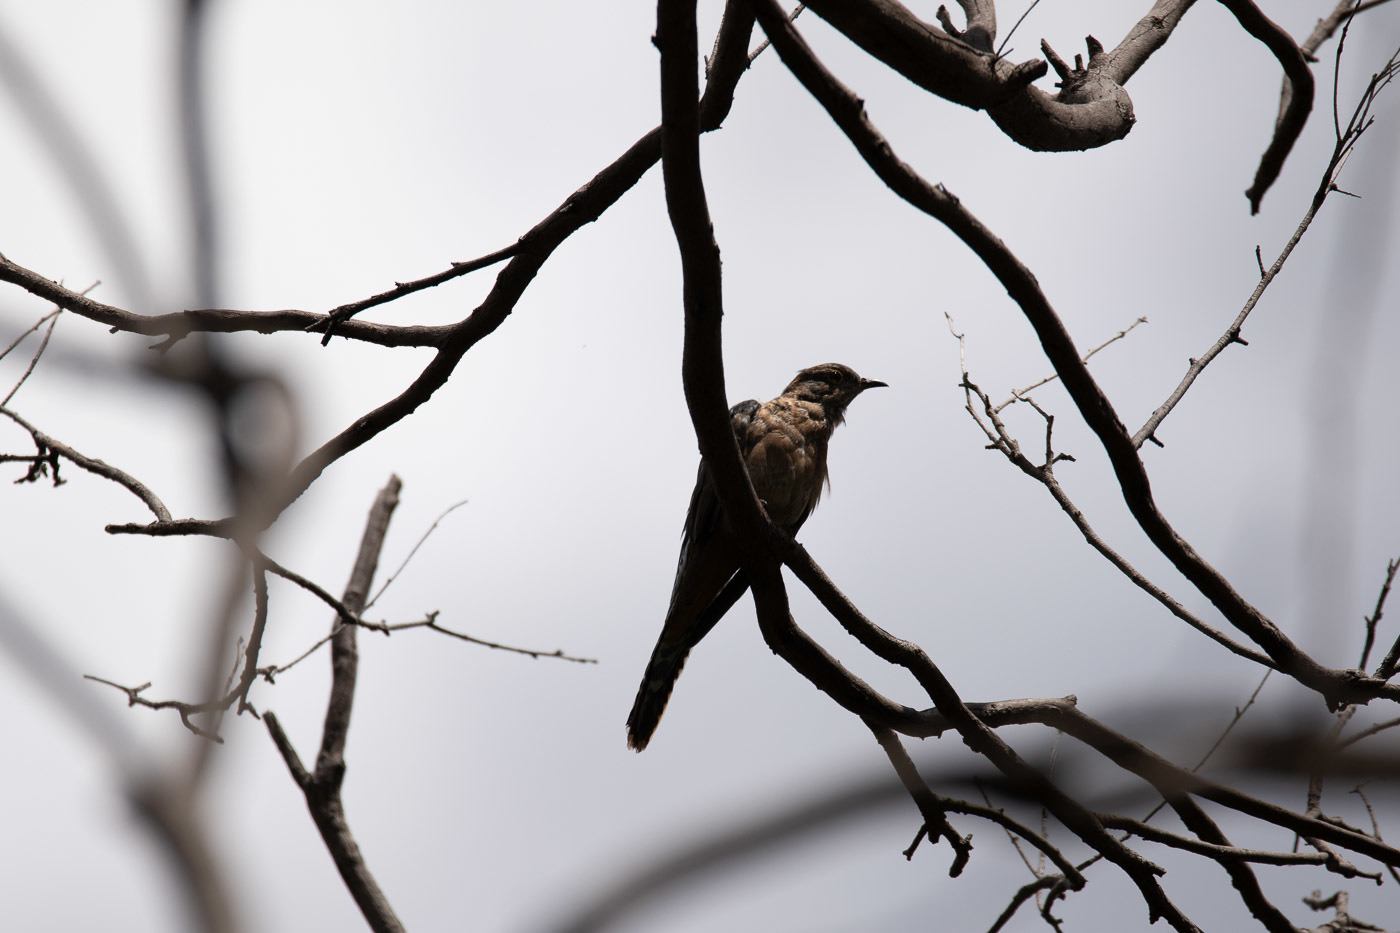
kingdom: Animalia
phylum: Chordata
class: Aves
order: Cuculiformes
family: Cuculidae
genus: Cacomantis
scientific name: Cacomantis flabelliformis
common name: Fan-tailed cuckoo
